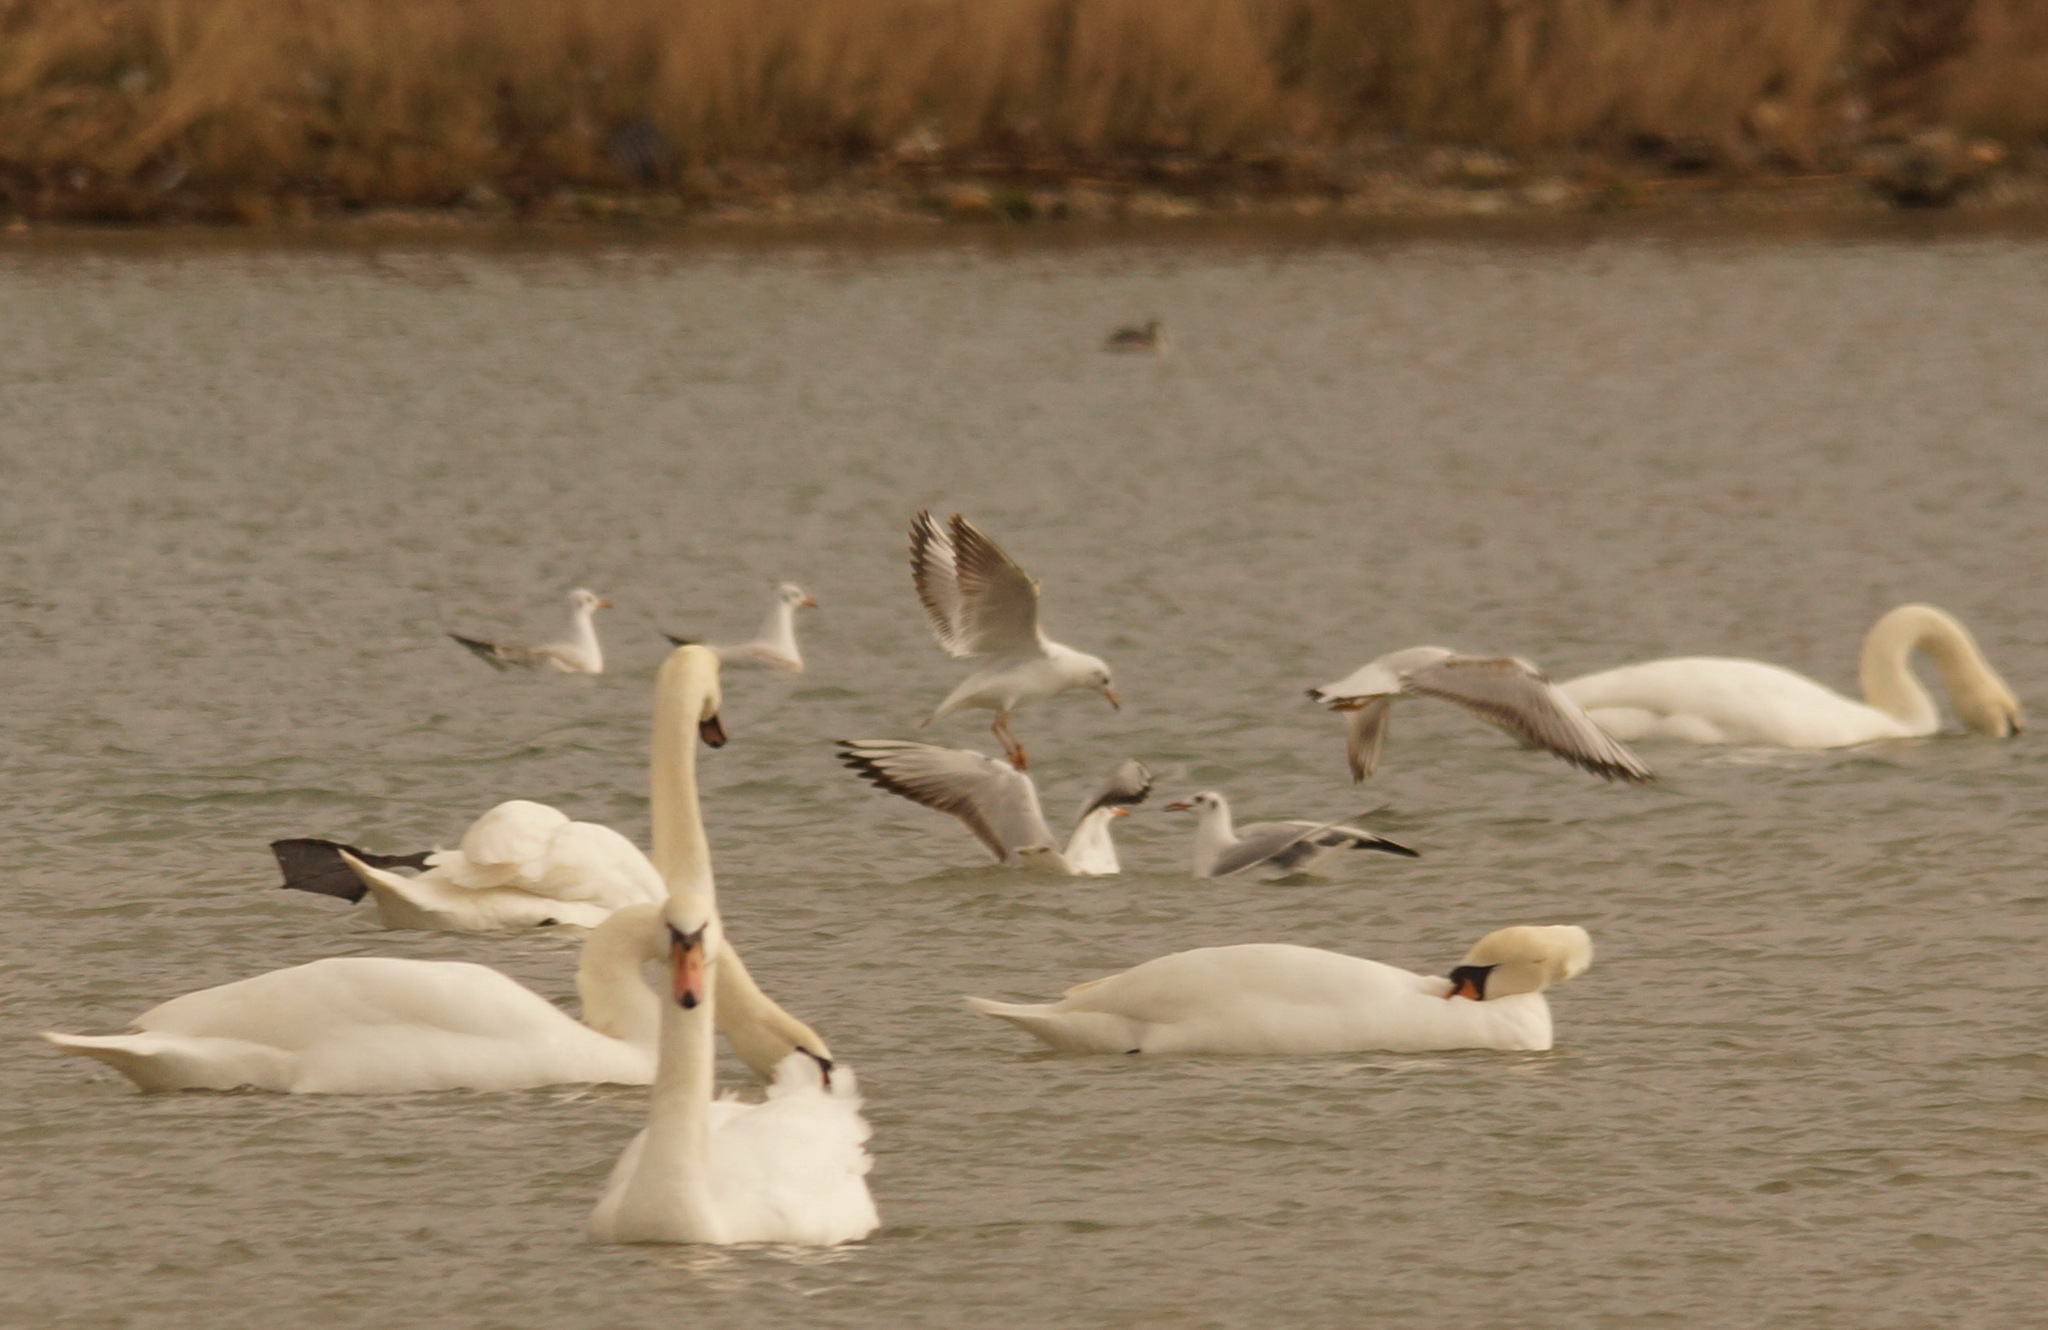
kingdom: Animalia
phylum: Chordata
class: Aves
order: Charadriiformes
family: Laridae
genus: Chroicocephalus
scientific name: Chroicocephalus ridibundus
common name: Black-headed gull
